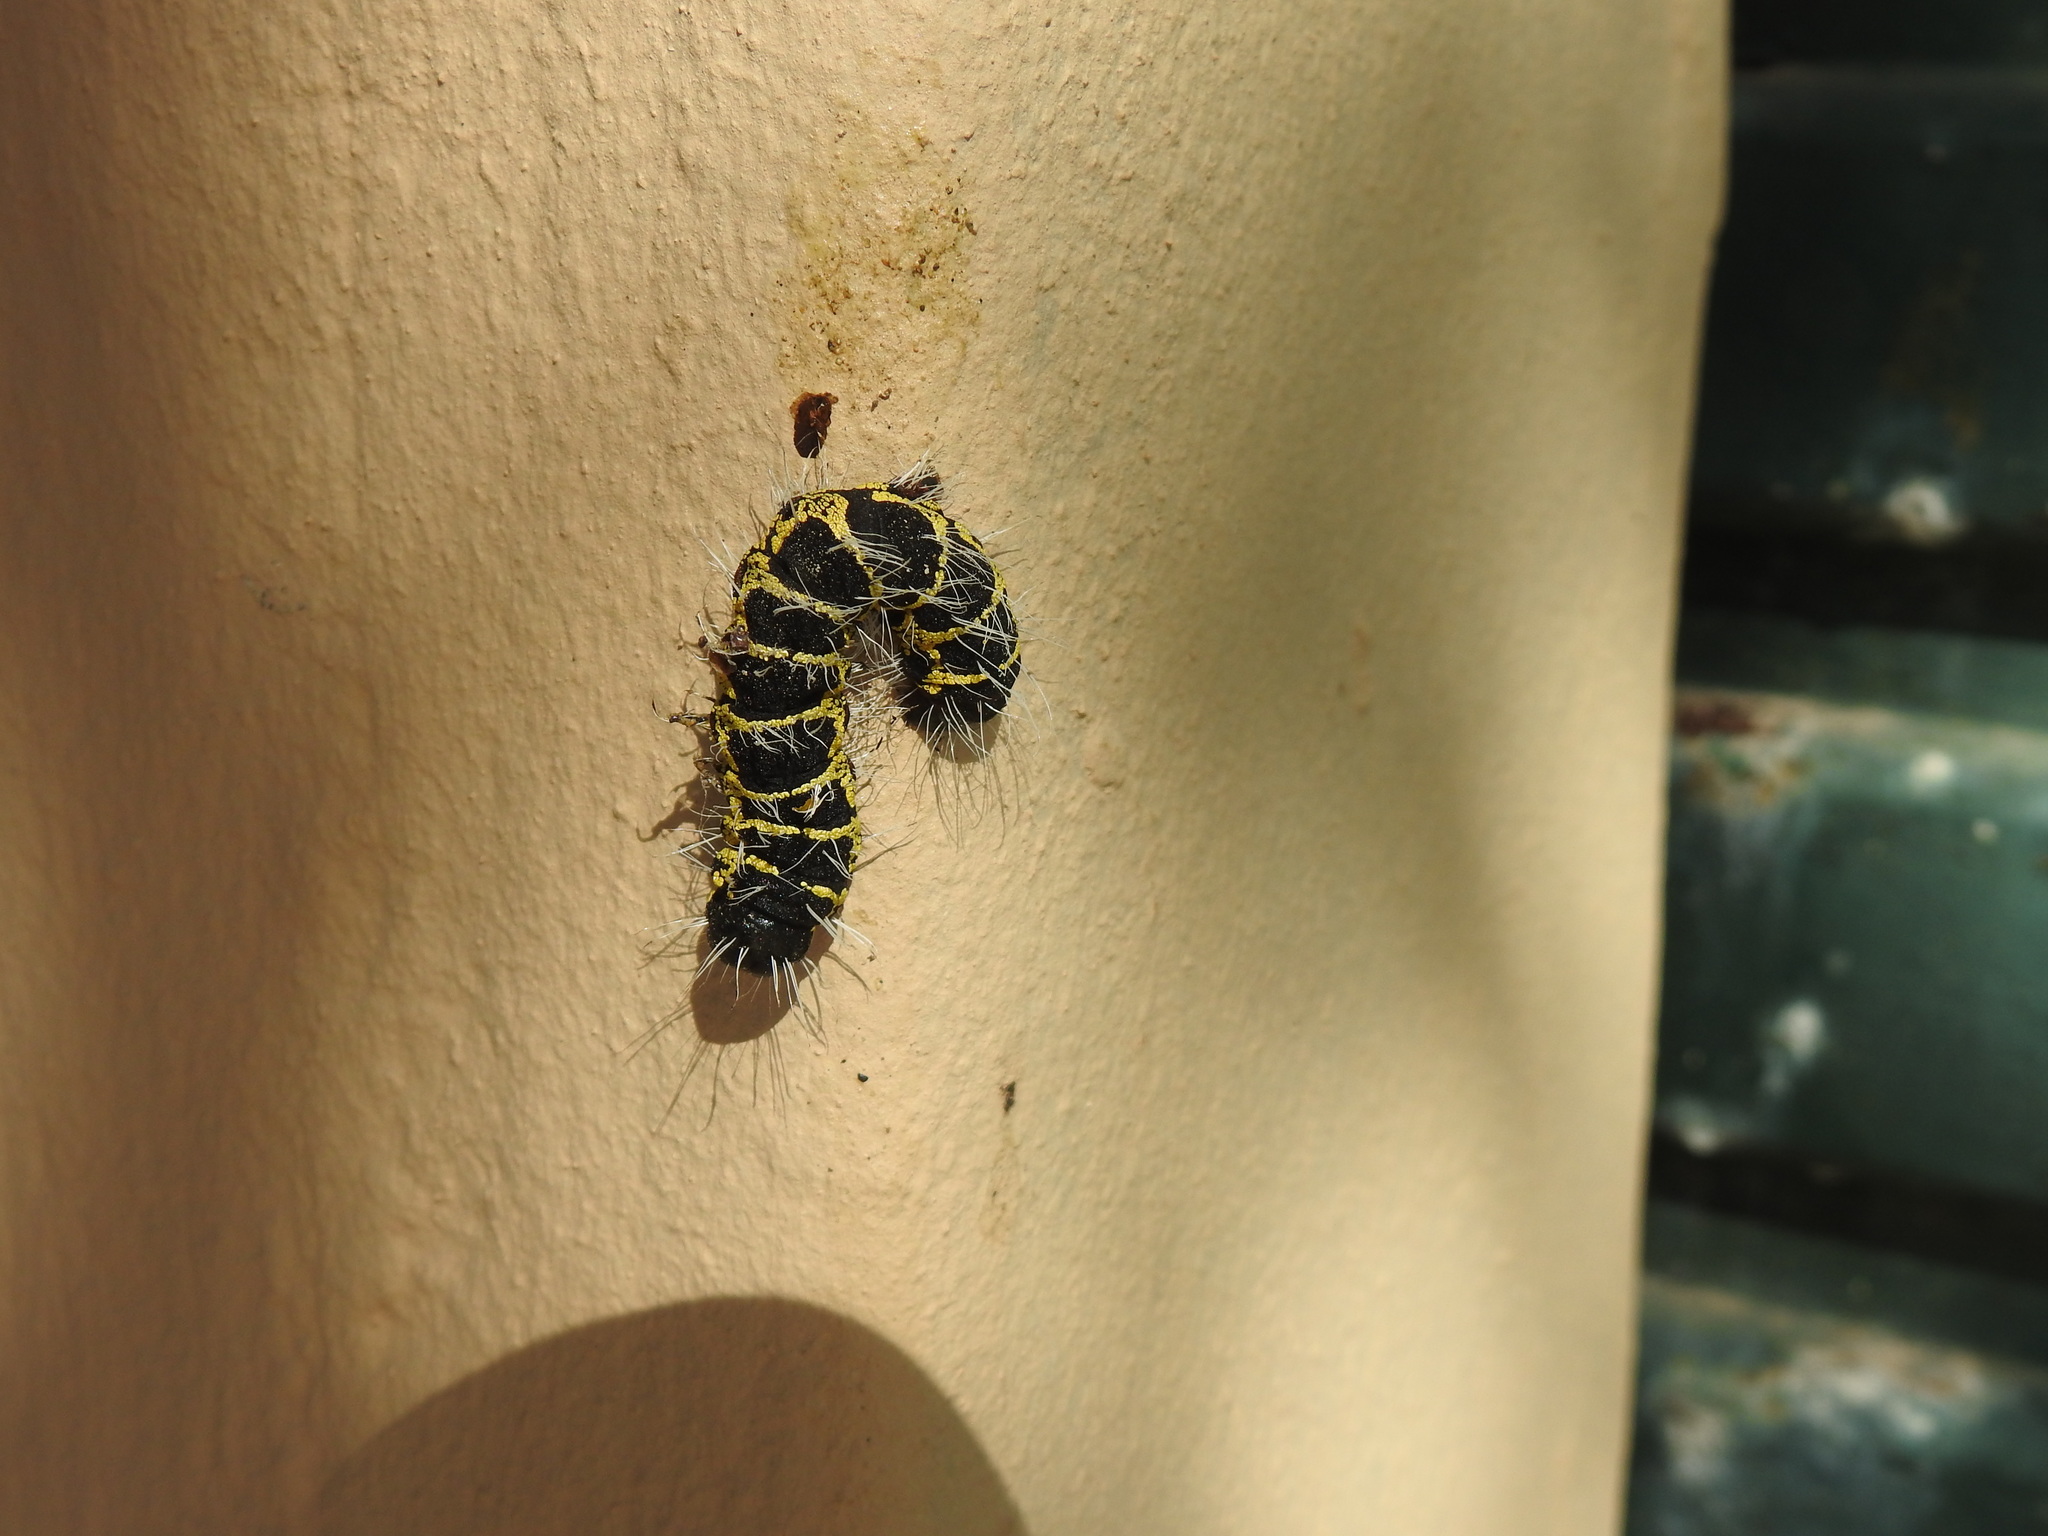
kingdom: Animalia
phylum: Arthropoda
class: Insecta
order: Lepidoptera
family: Erebidae
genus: Egybolis
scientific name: Egybolis vaillantina
